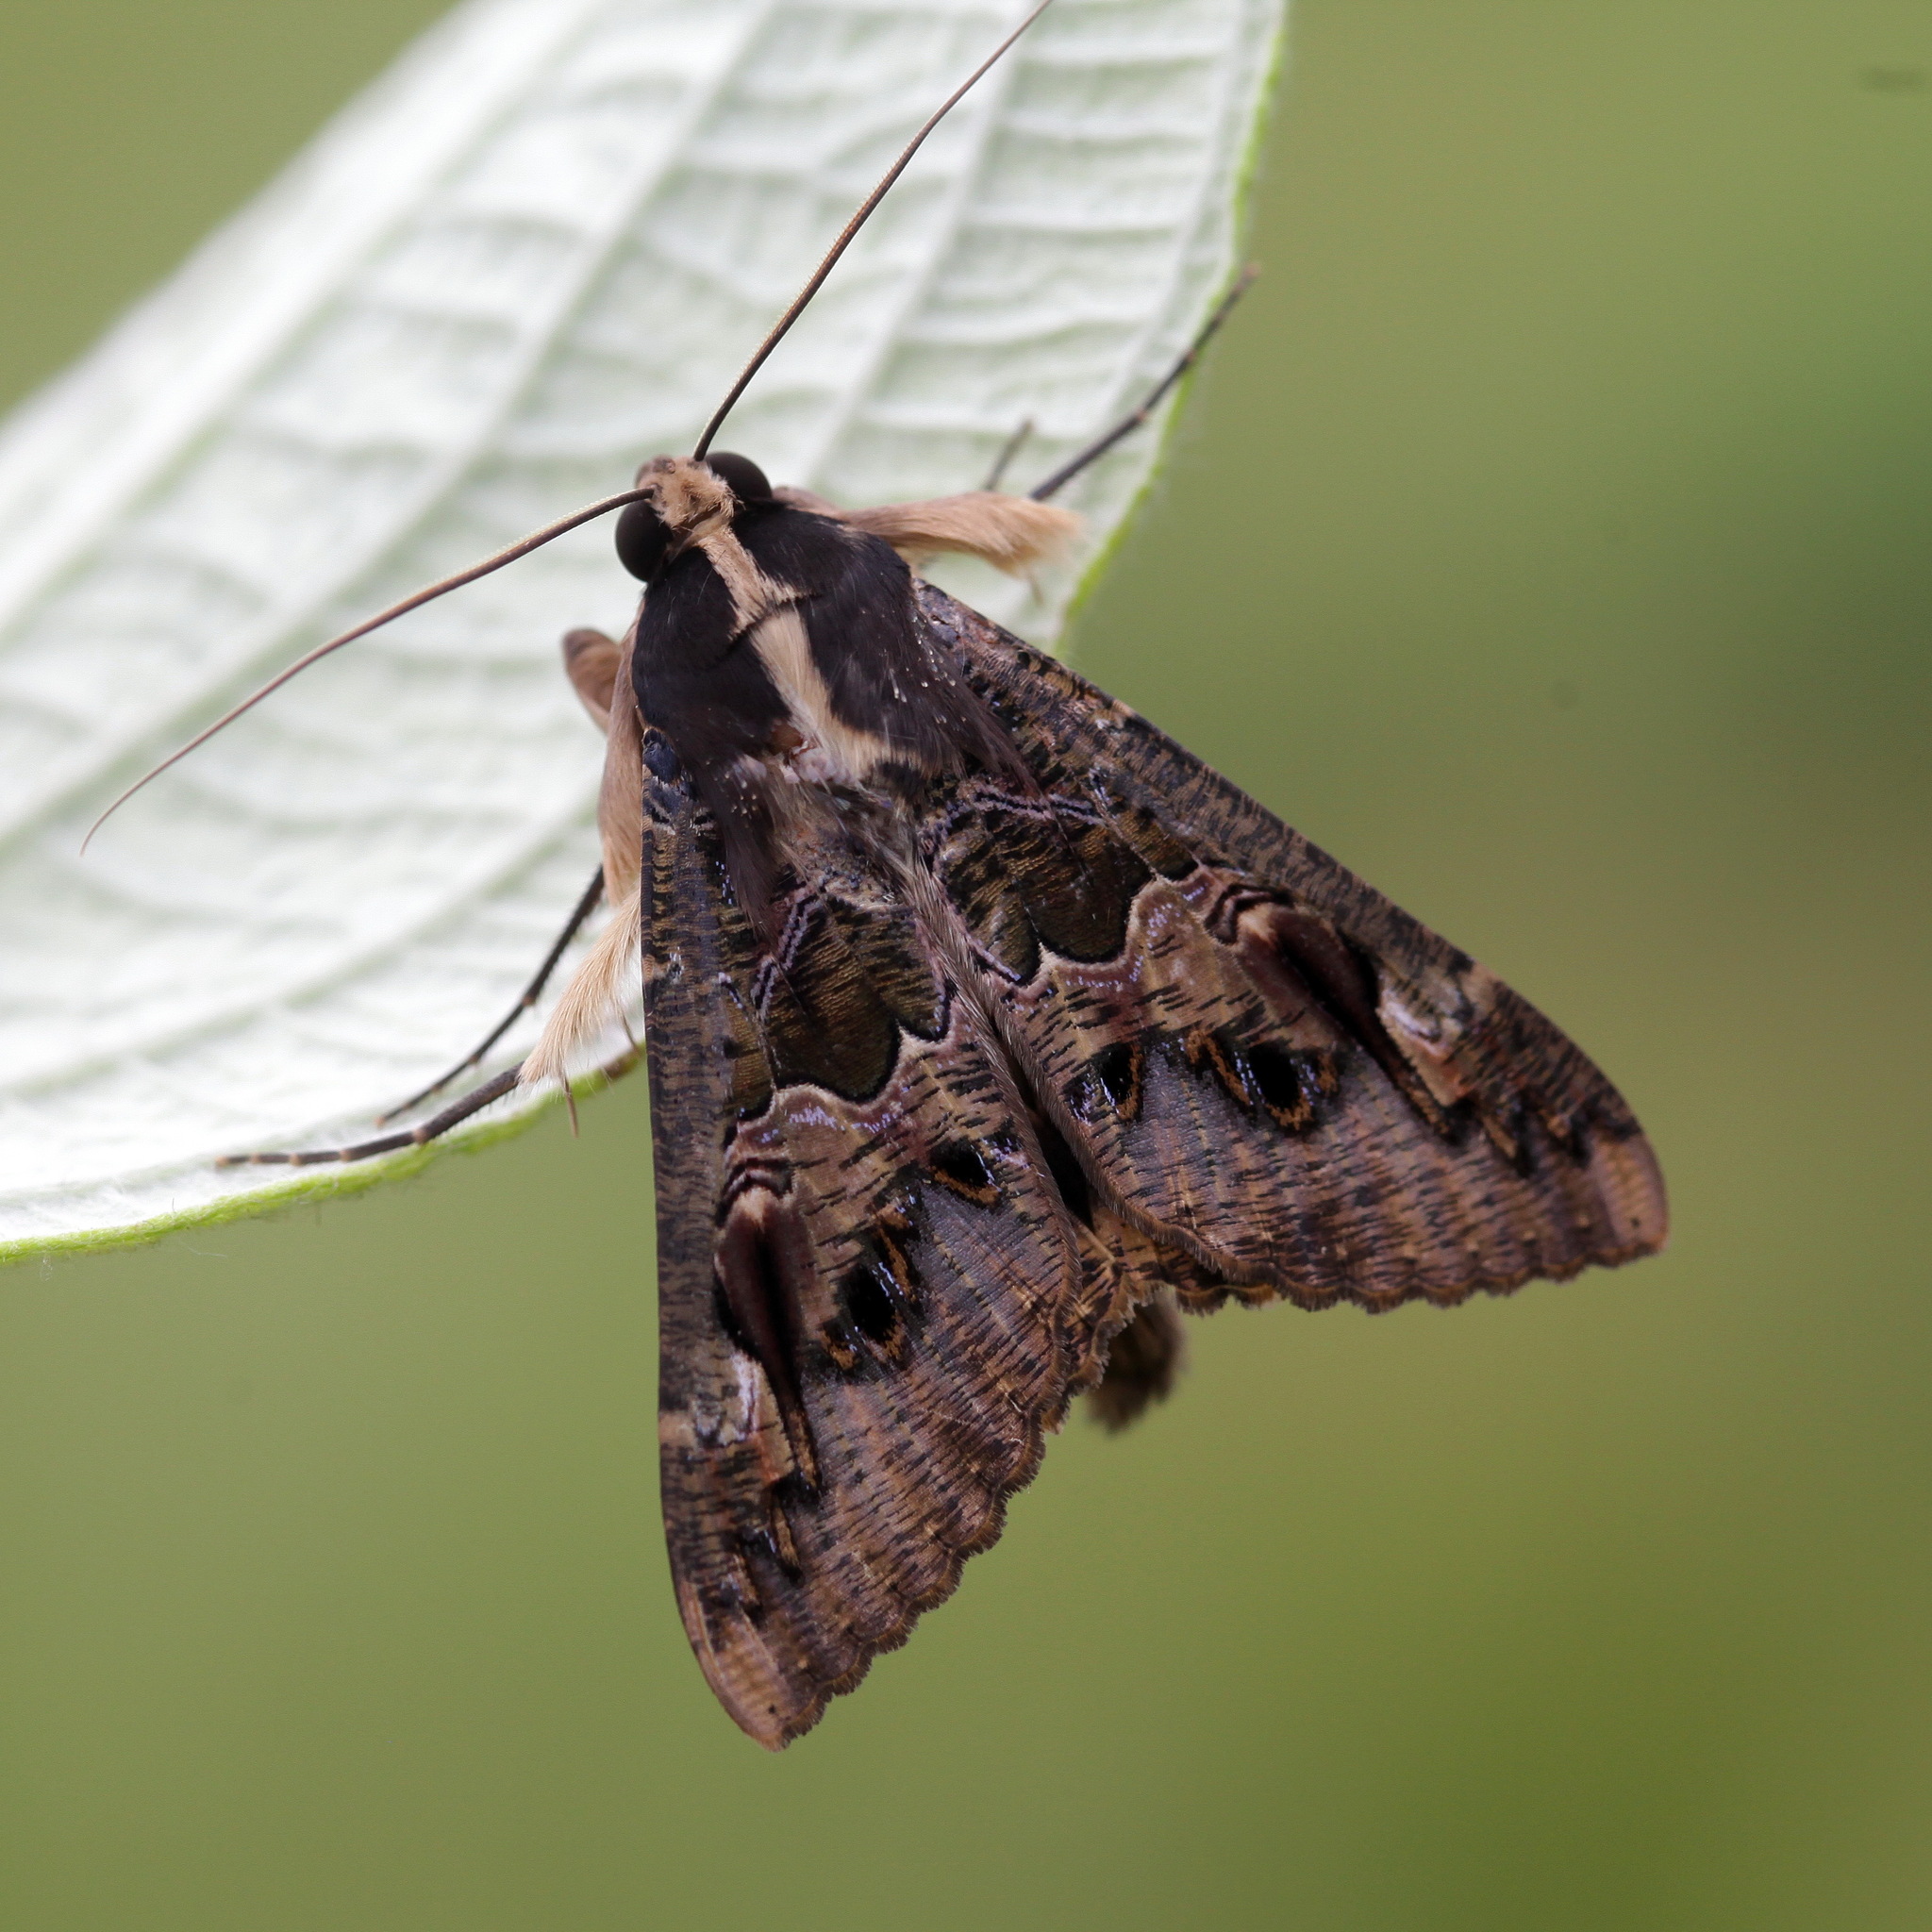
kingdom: Animalia
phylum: Arthropoda
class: Insecta
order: Lepidoptera
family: Erebidae
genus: Sphingomorpha
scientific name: Sphingomorpha chlorea
